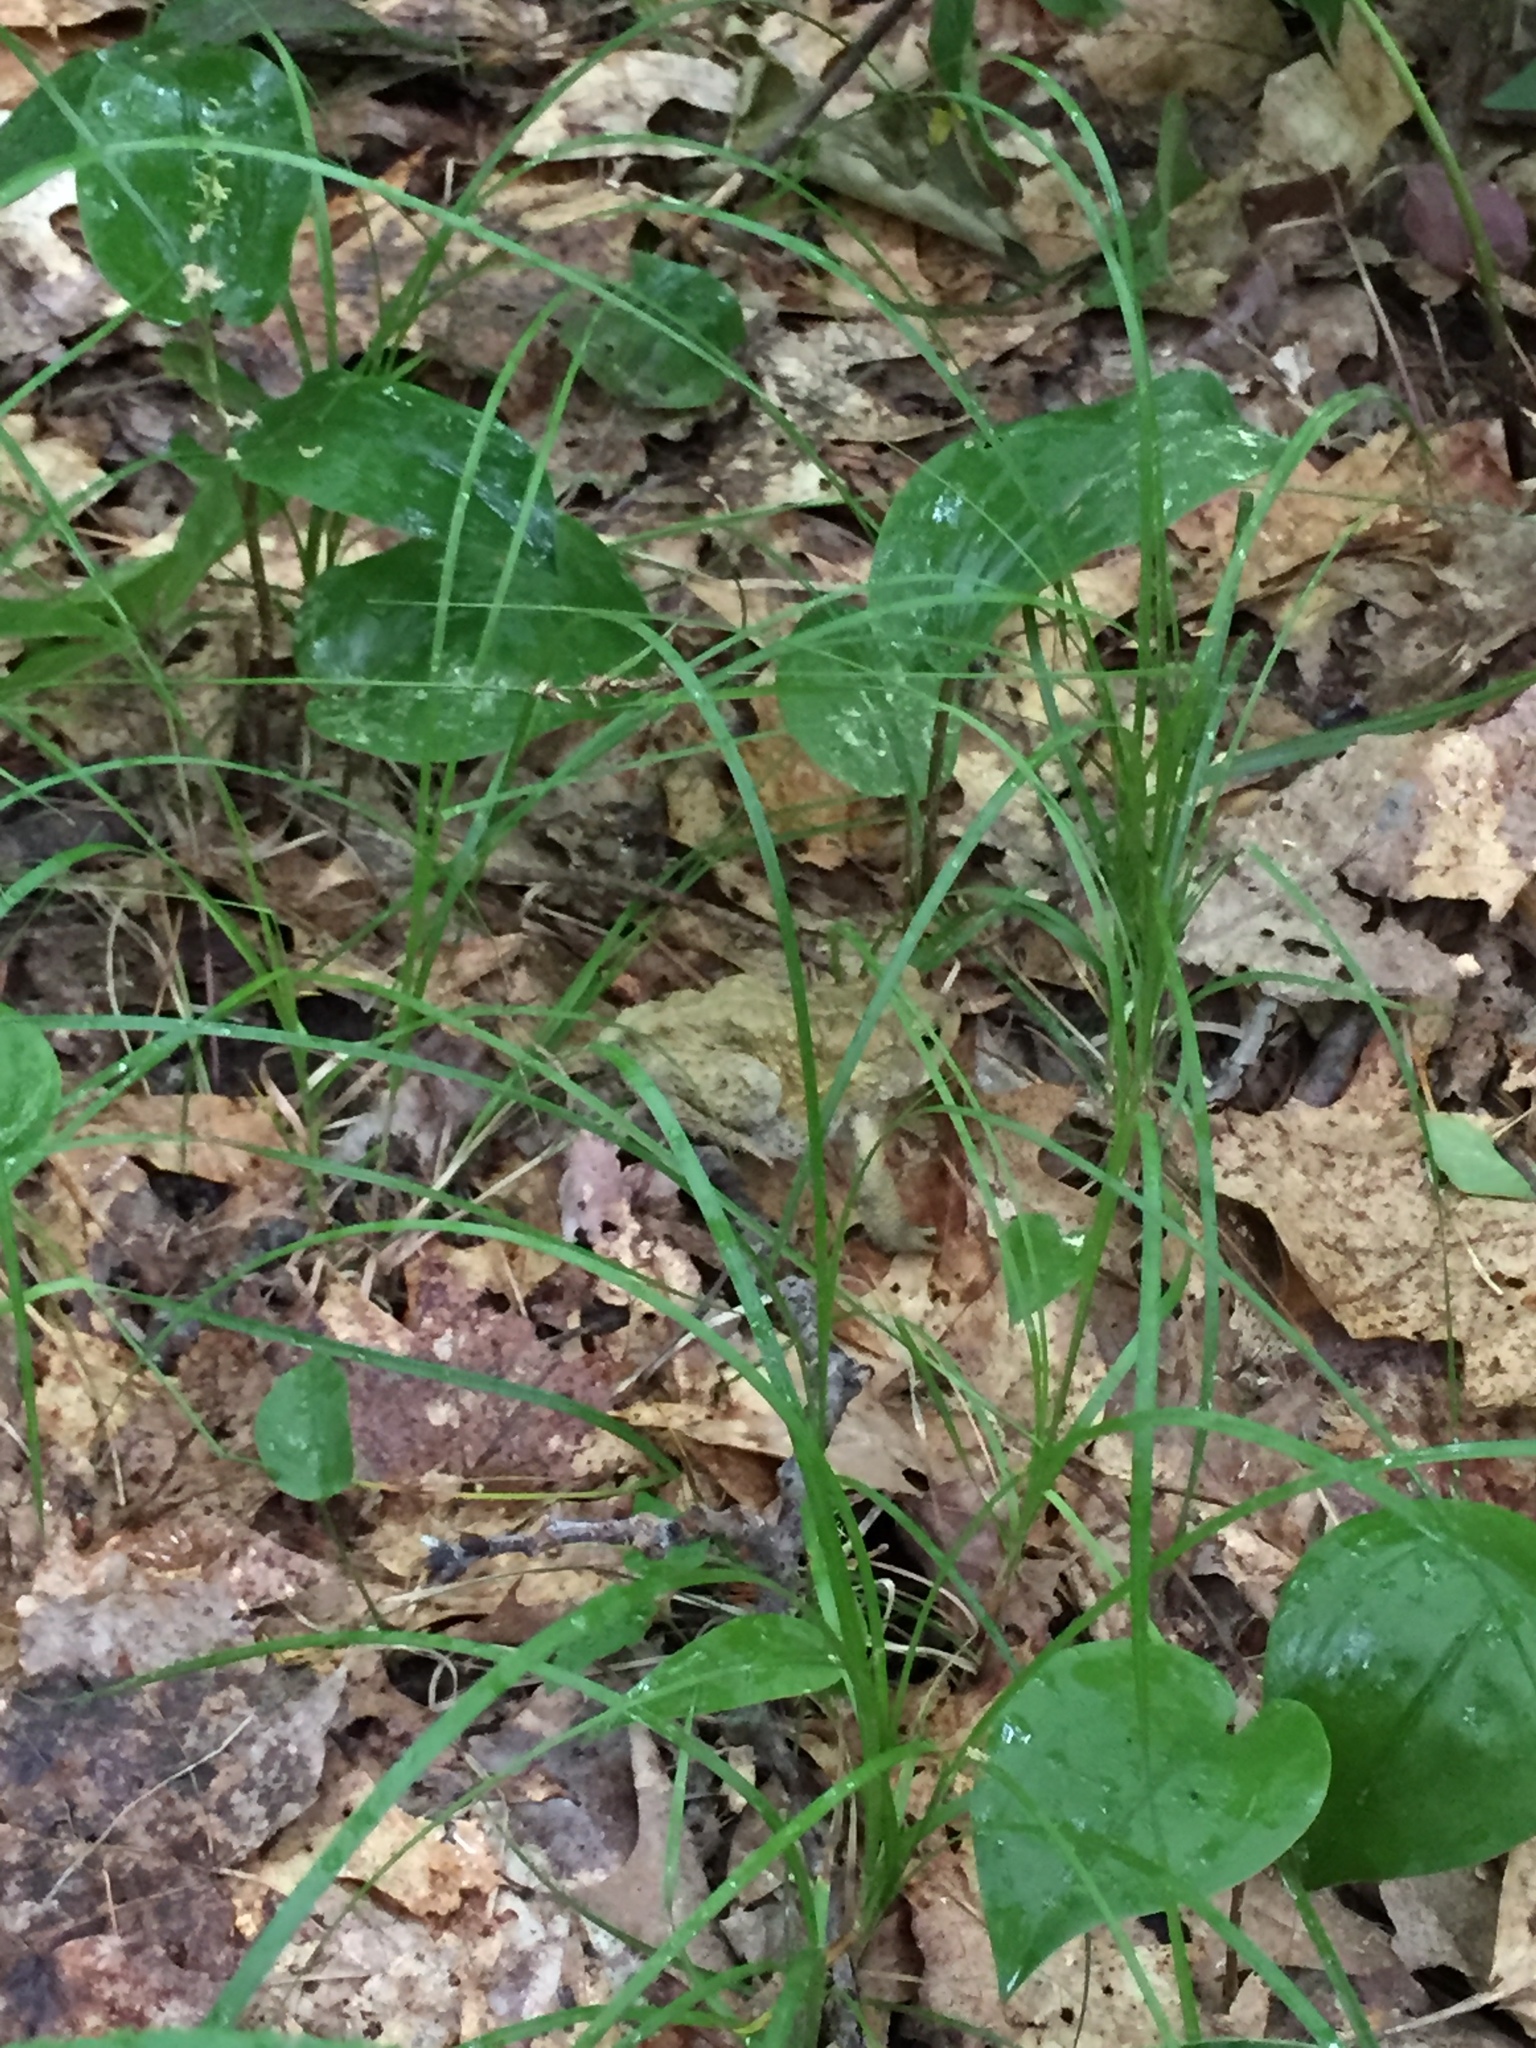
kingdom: Animalia
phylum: Chordata
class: Amphibia
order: Anura
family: Bufonidae
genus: Anaxyrus
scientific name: Anaxyrus americanus
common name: American toad
